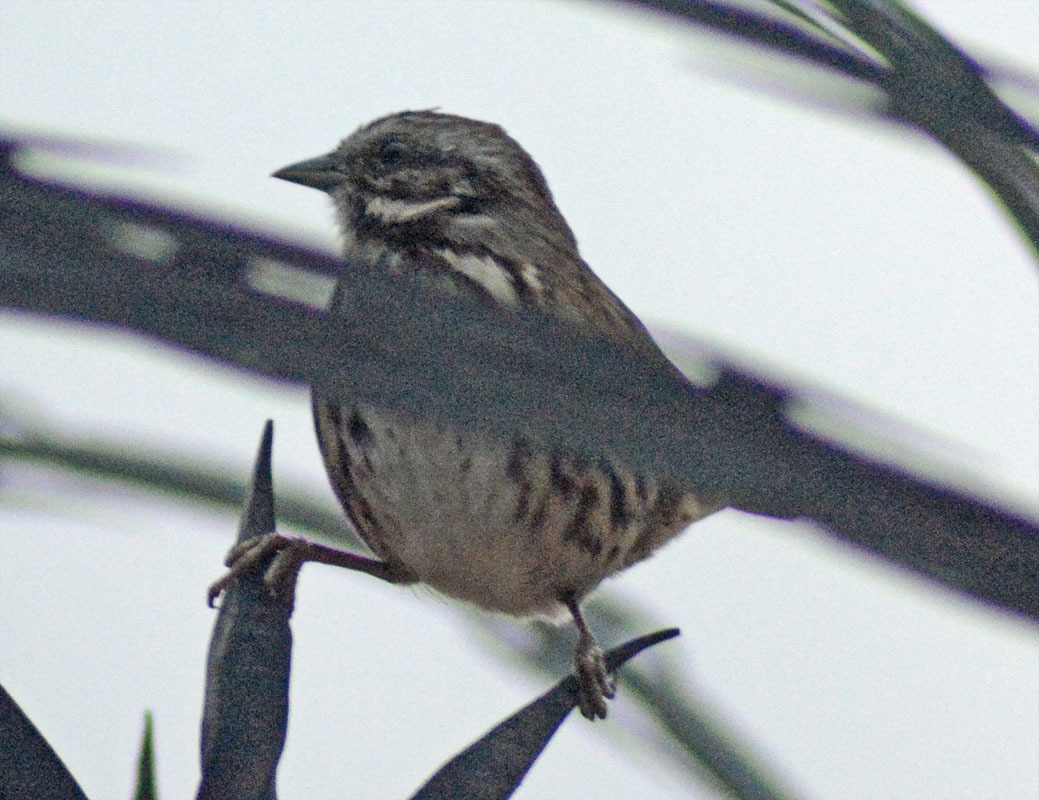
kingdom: Animalia
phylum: Chordata
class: Aves
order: Passeriformes
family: Passerellidae
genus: Melospiza
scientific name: Melospiza melodia
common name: Song sparrow
